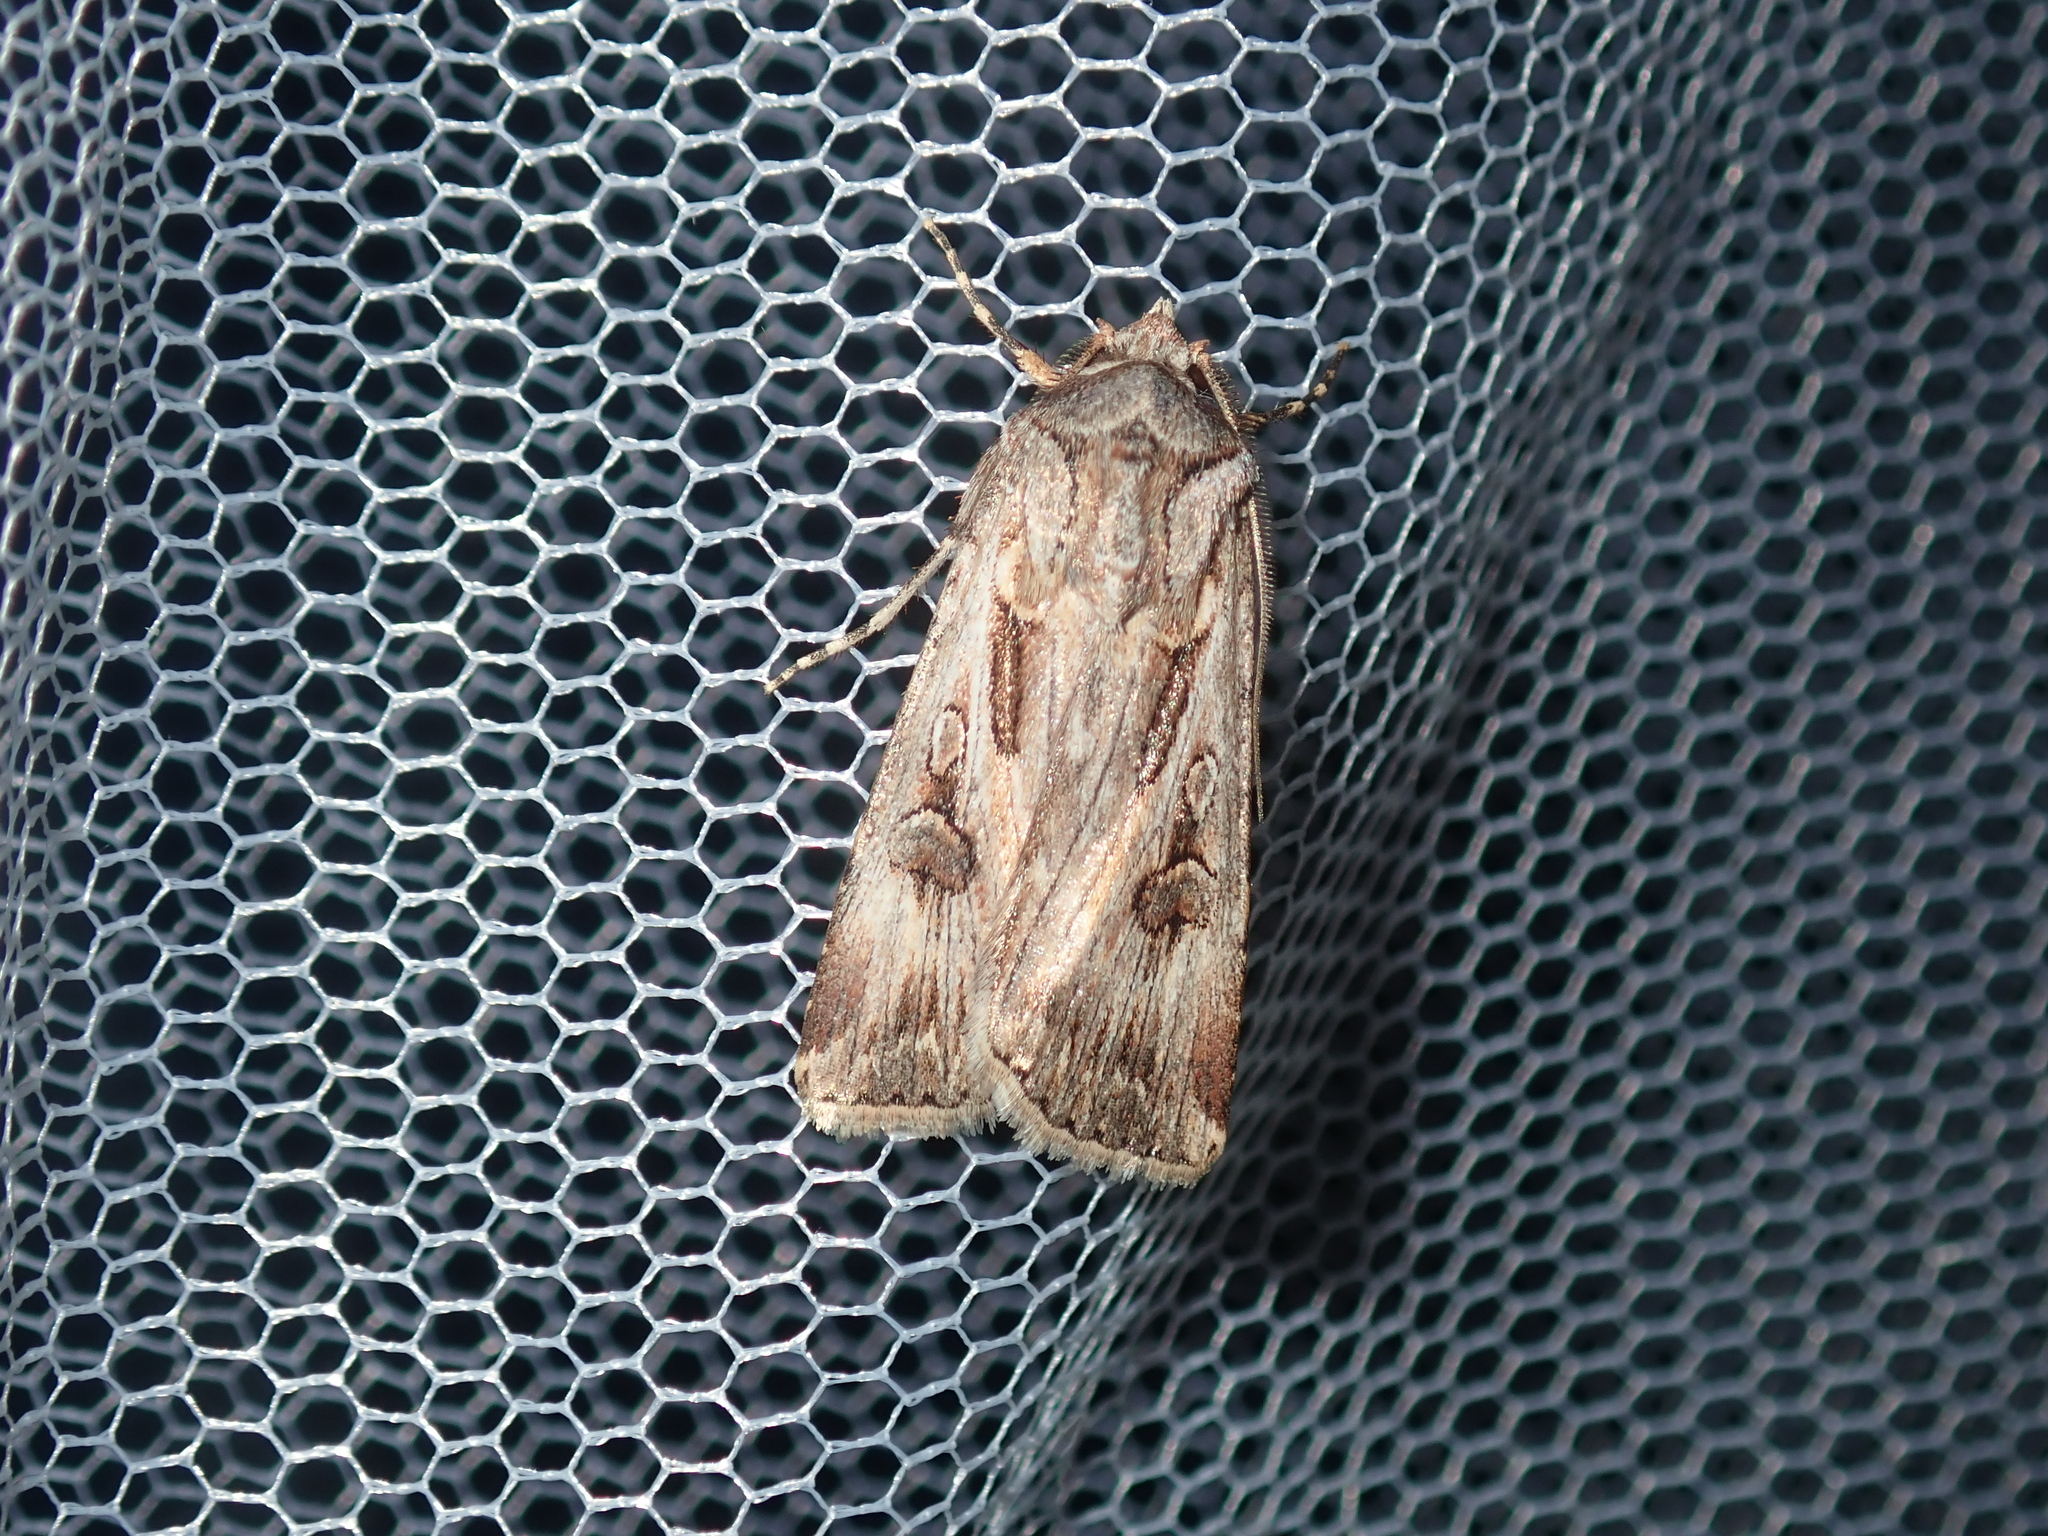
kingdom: Animalia
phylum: Arthropoda
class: Insecta
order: Lepidoptera
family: Noctuidae
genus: Agrotis
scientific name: Agrotis munda
